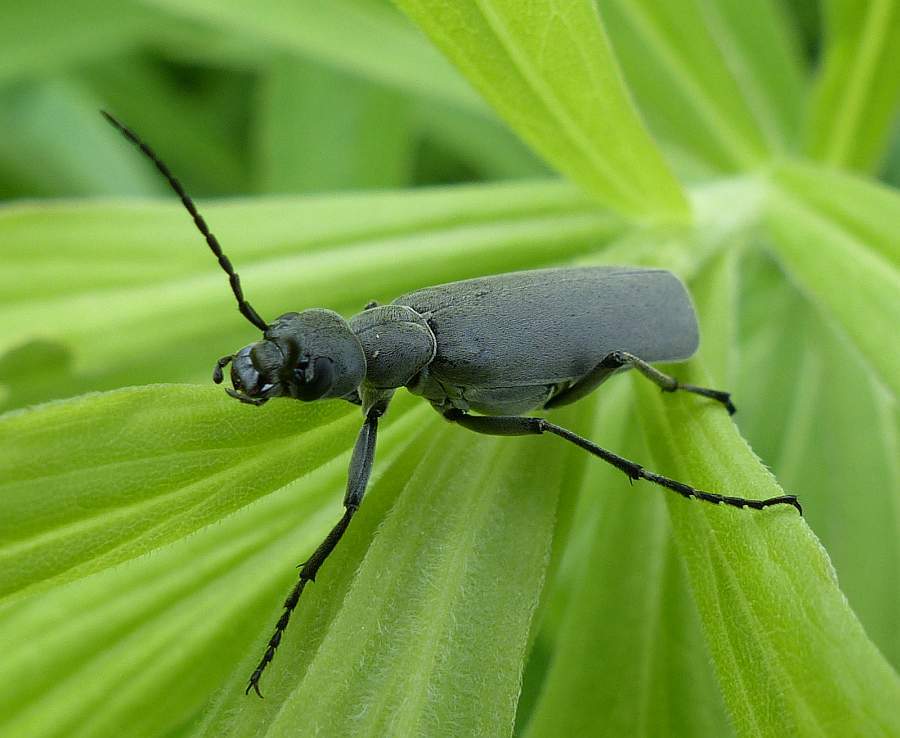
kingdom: Animalia
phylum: Arthropoda
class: Insecta
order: Coleoptera
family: Meloidae
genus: Epicauta
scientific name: Epicauta murina
